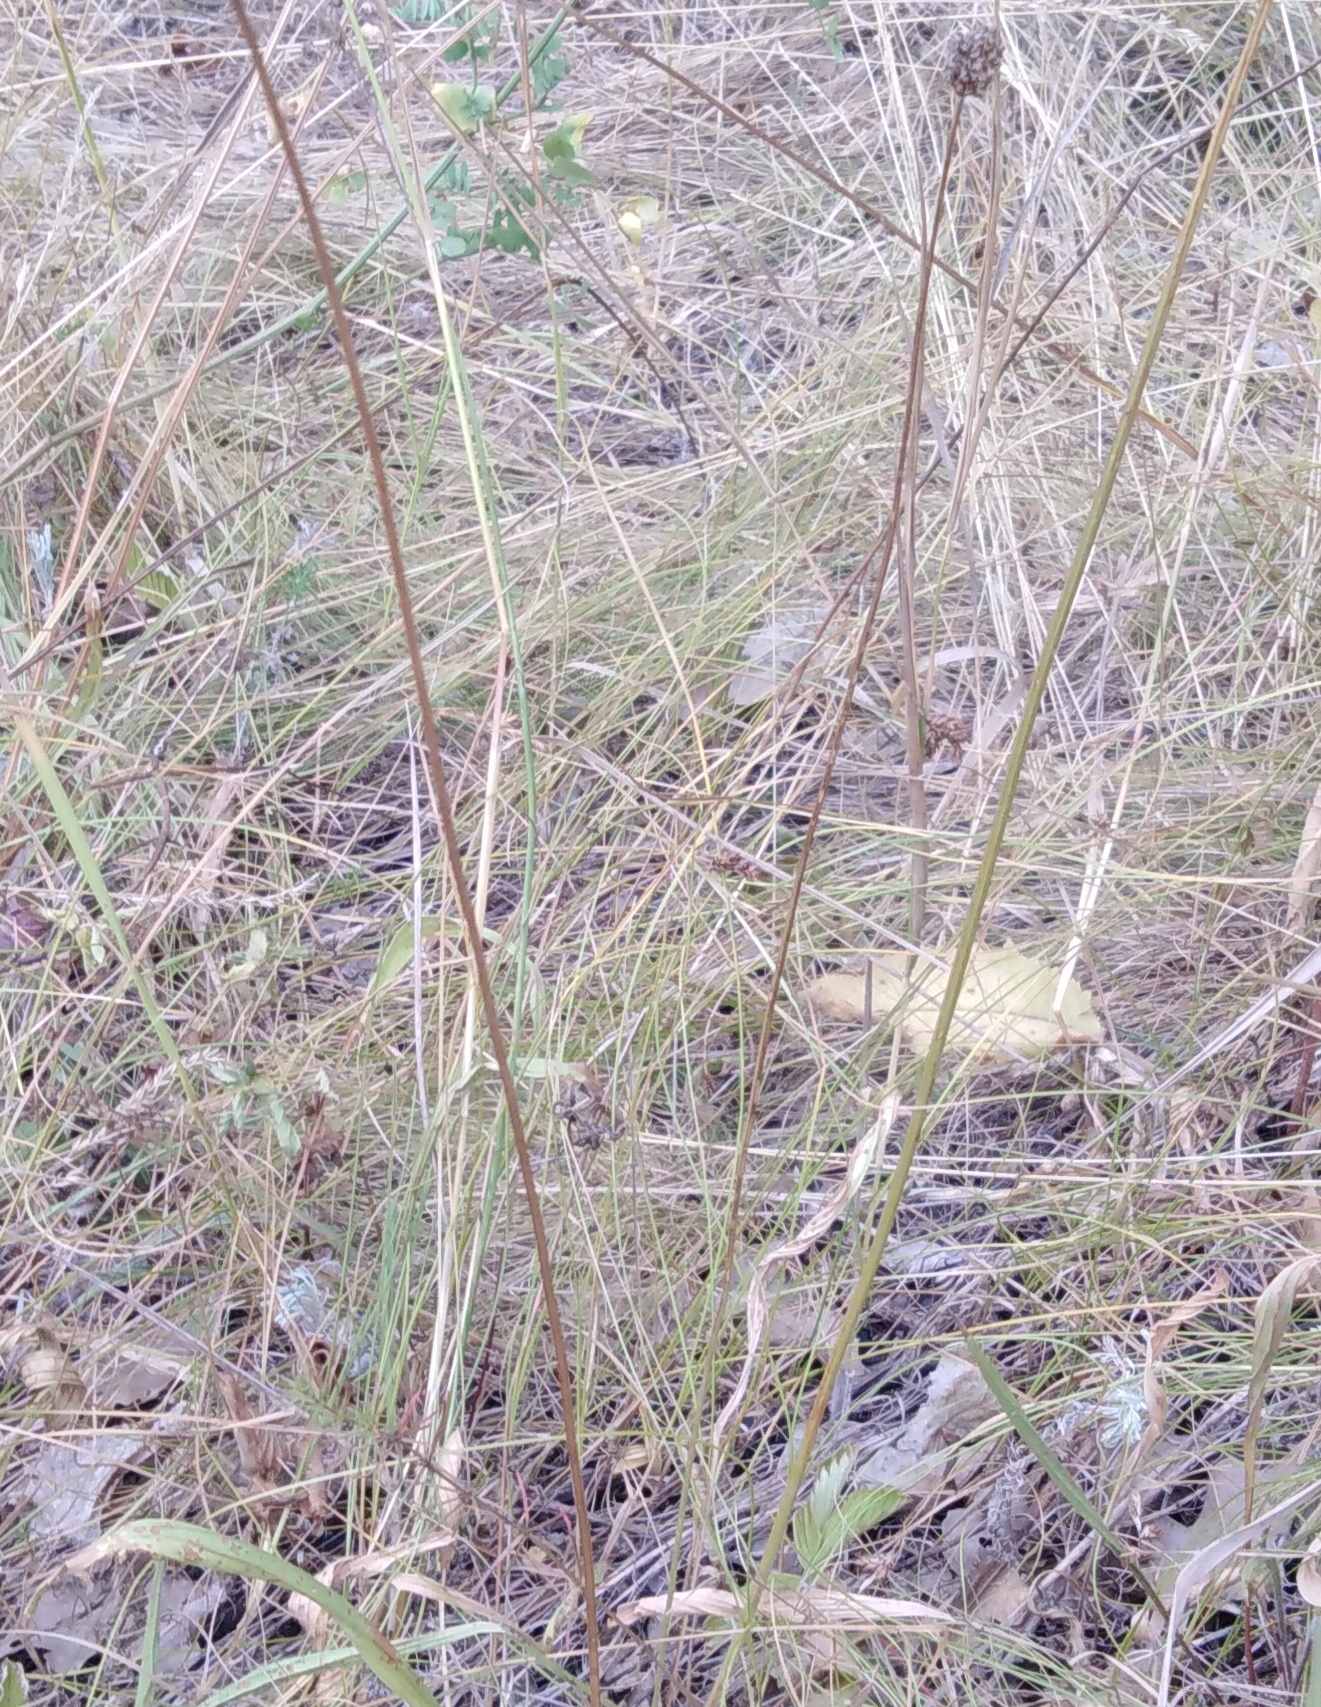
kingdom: Plantae
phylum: Tracheophyta
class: Magnoliopsida
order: Lamiales
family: Plantaginaceae
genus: Plantago
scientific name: Plantago lanceolata
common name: Ribwort plantain
